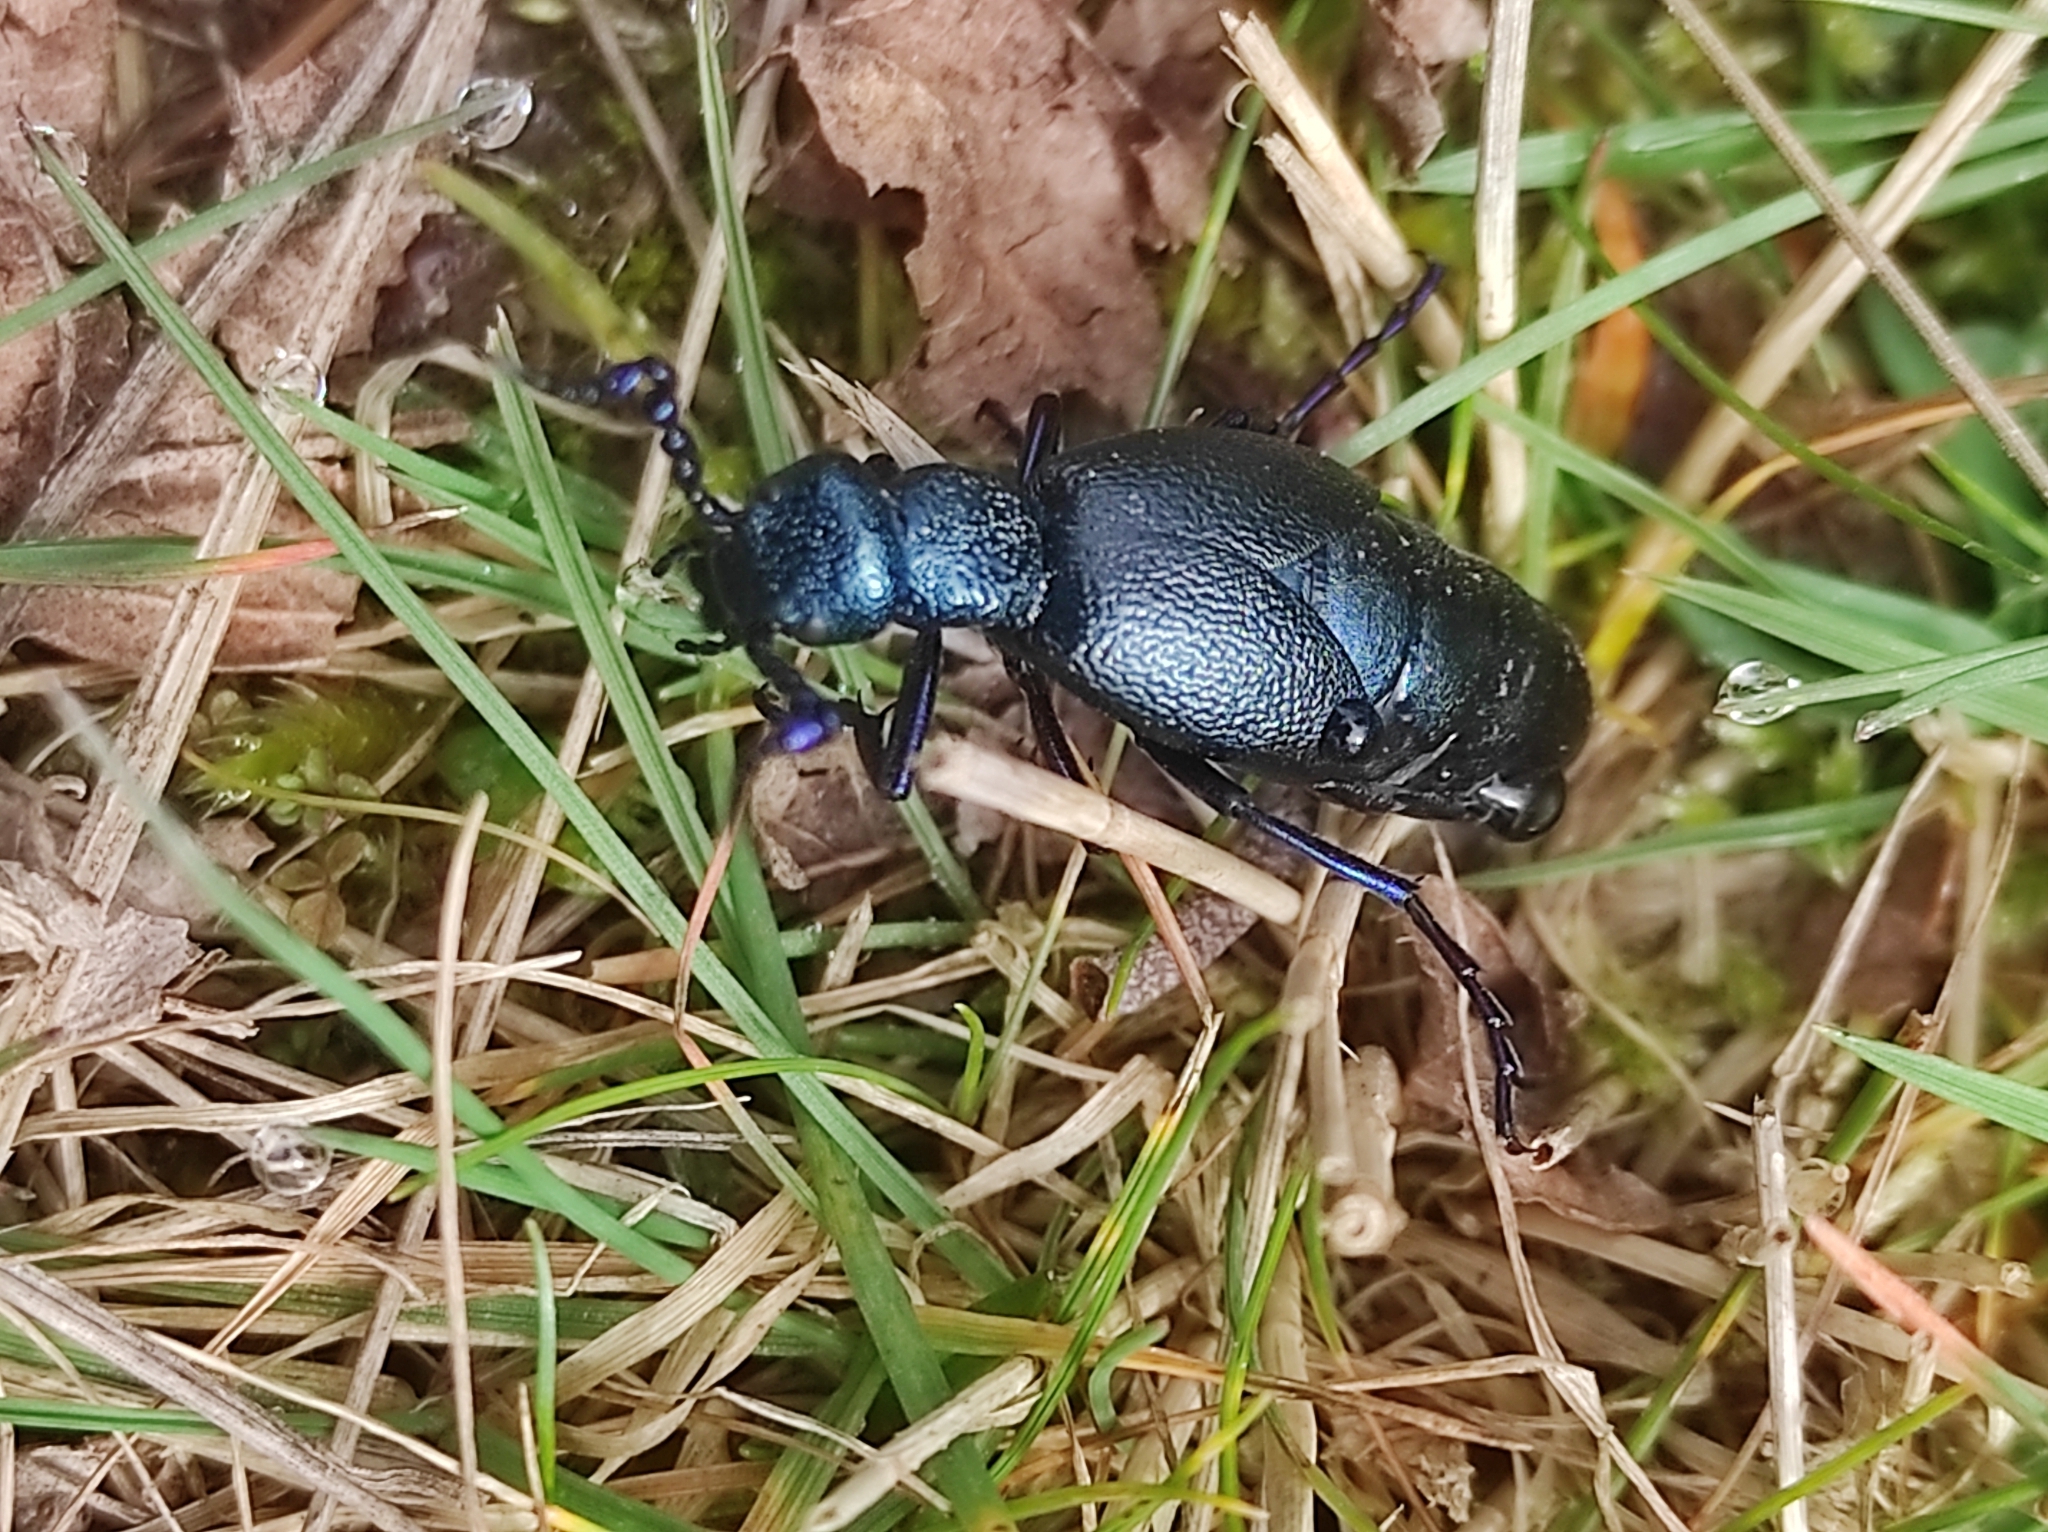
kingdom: Animalia
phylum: Arthropoda
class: Insecta
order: Coleoptera
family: Meloidae
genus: Meloe
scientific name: Meloe proscarabaeus
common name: Black oil-beetle
